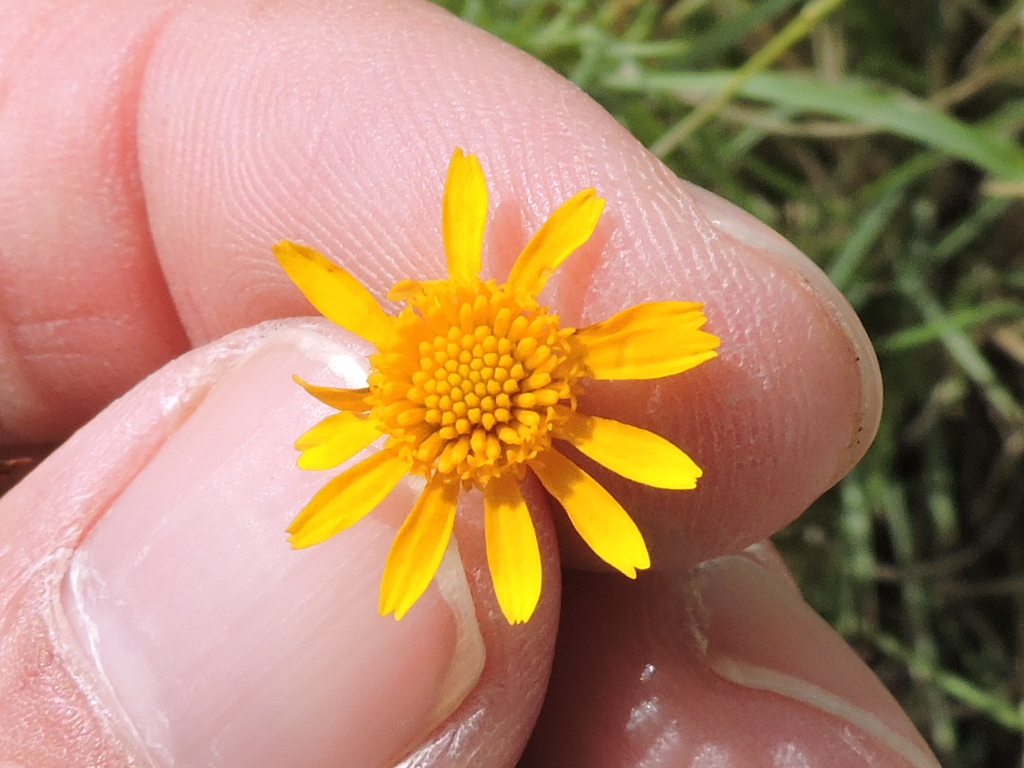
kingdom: Plantae
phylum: Tracheophyta
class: Magnoliopsida
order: Asterales
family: Asteraceae
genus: Thymophylla
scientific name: Thymophylla pentachaeta
